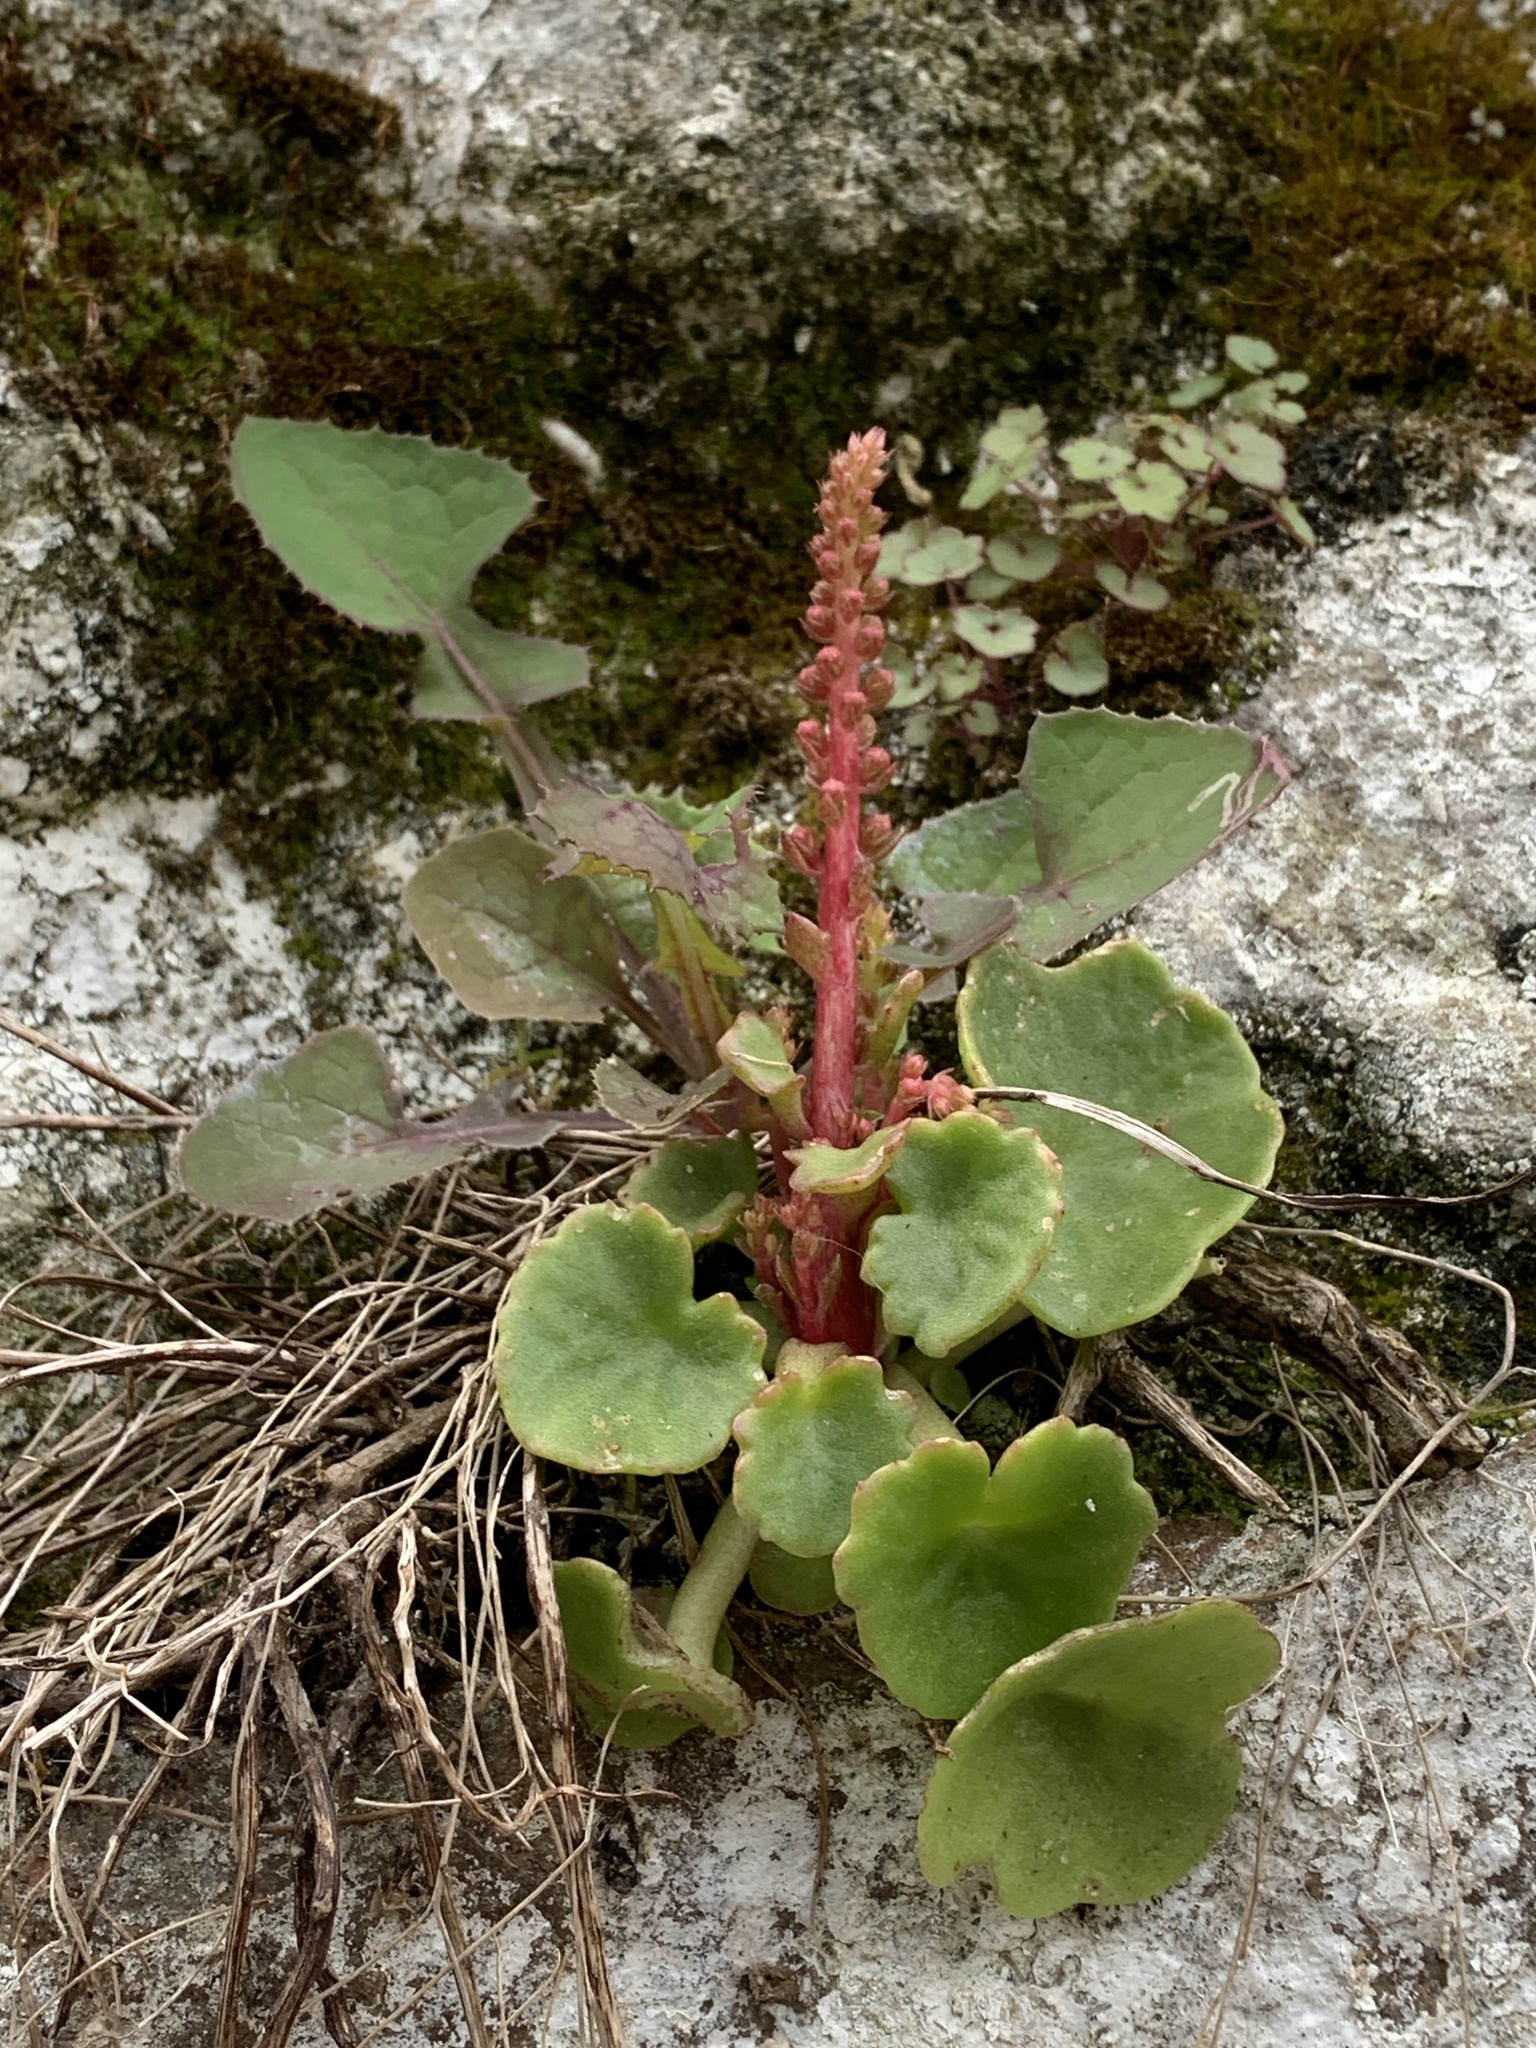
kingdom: Plantae
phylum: Tracheophyta
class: Magnoliopsida
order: Saxifragales
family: Crassulaceae
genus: Umbilicus
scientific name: Umbilicus rupestris
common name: Navelwort
